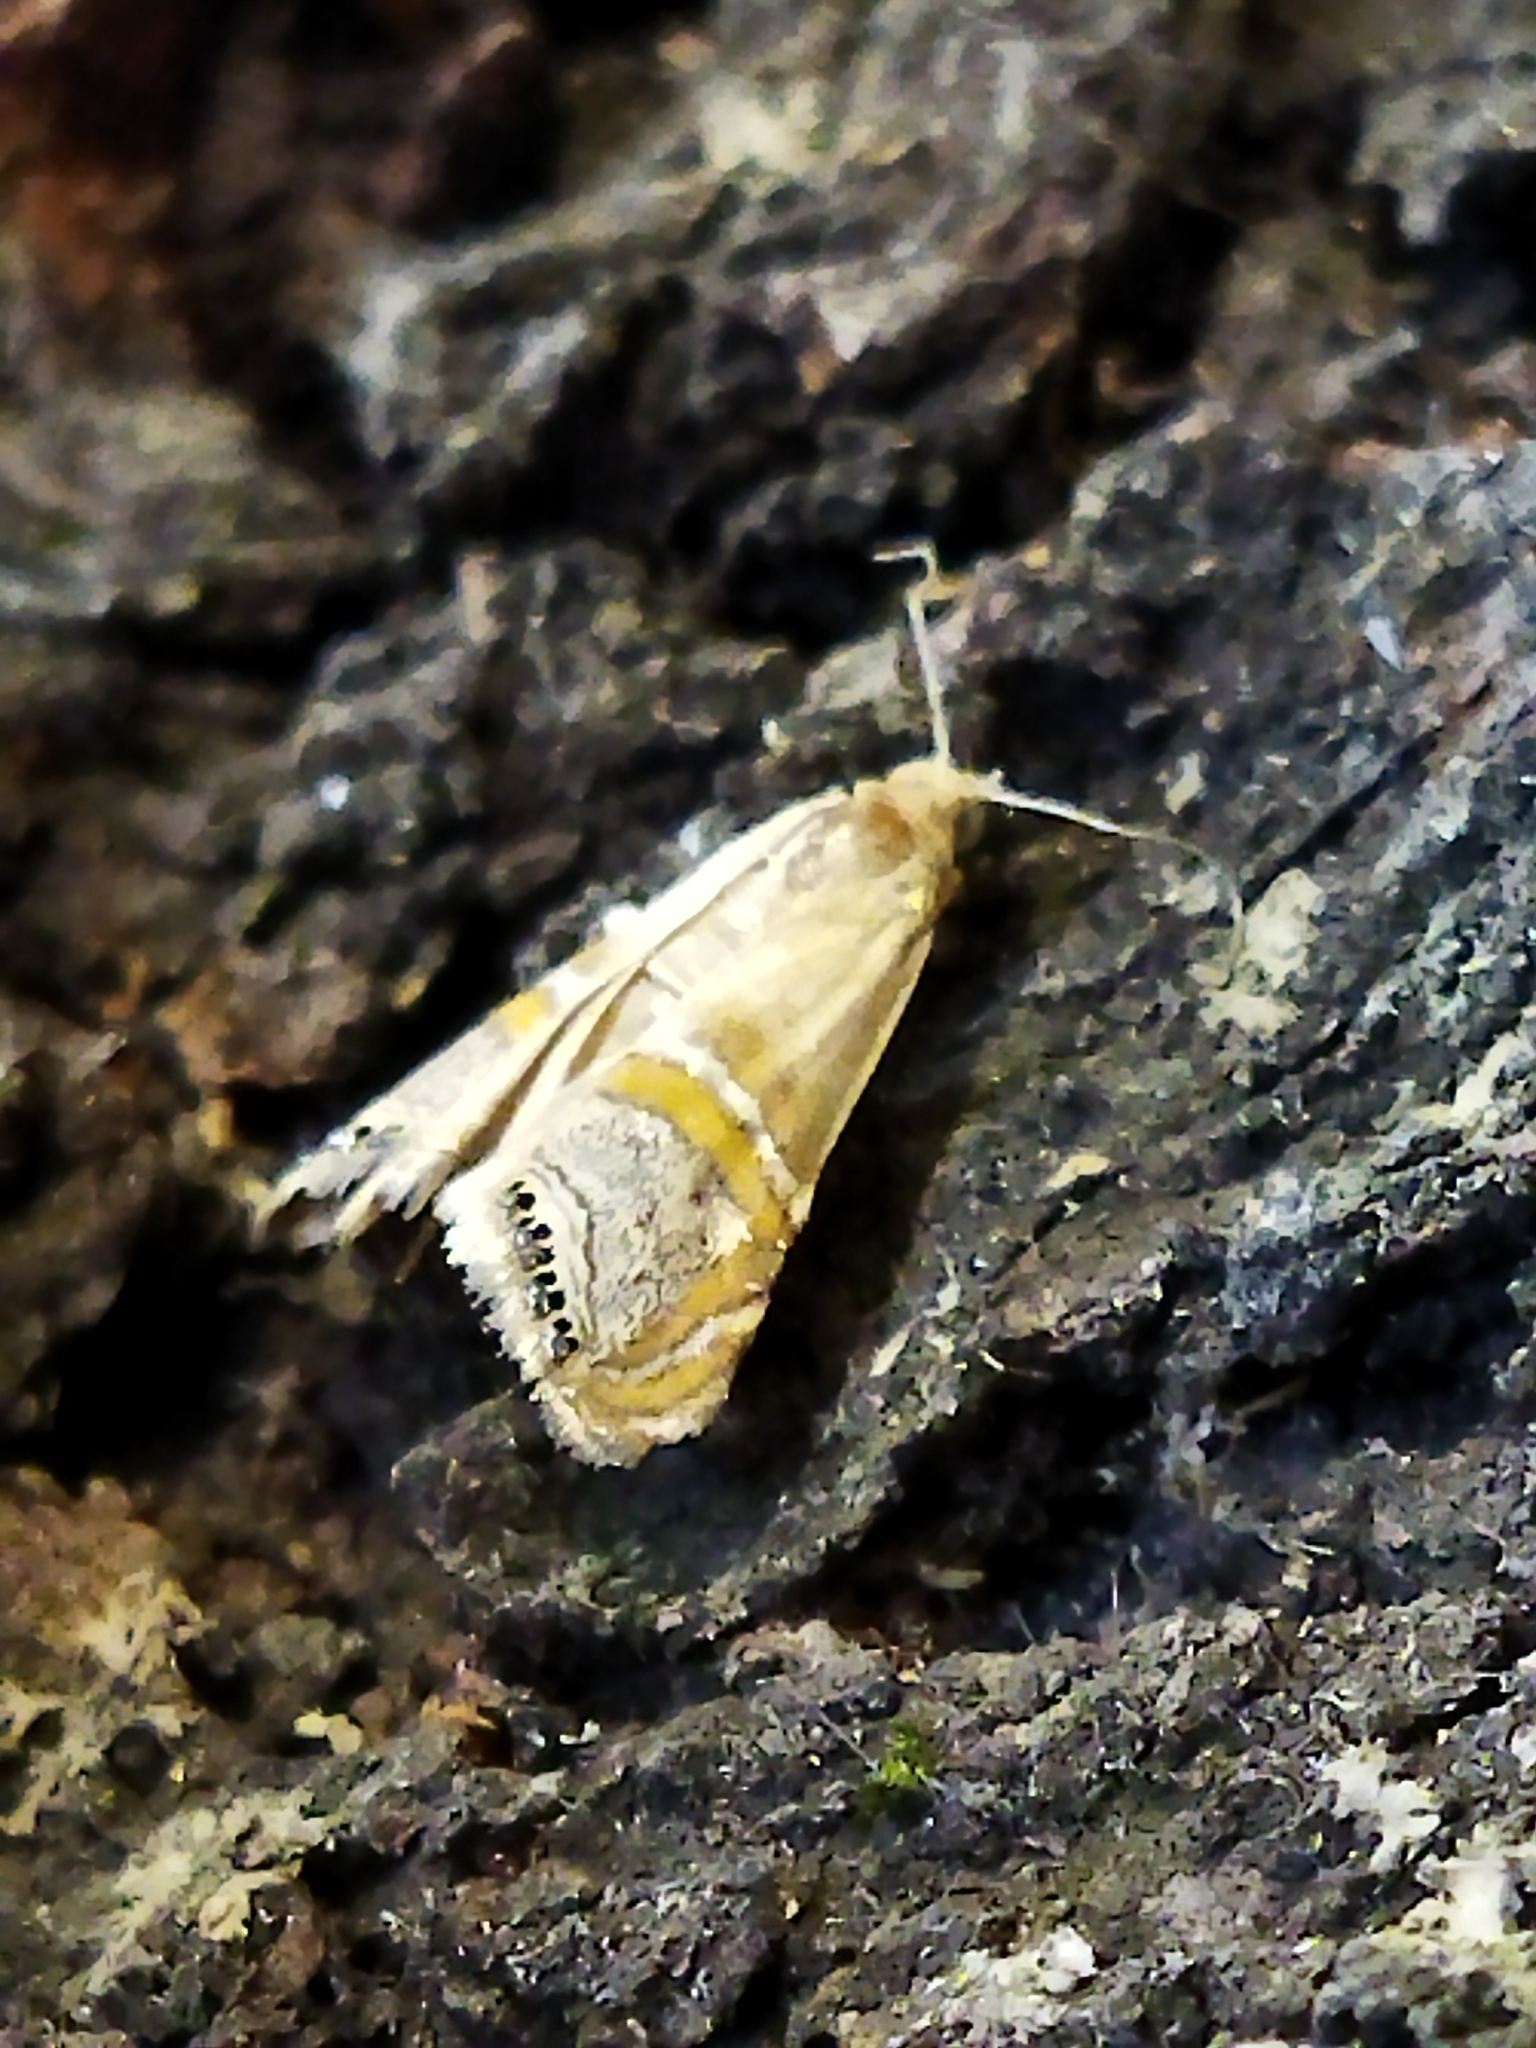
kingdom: Animalia
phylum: Arthropoda
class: Insecta
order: Lepidoptera
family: Crambidae
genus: Euchromius
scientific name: Euchromius bella
